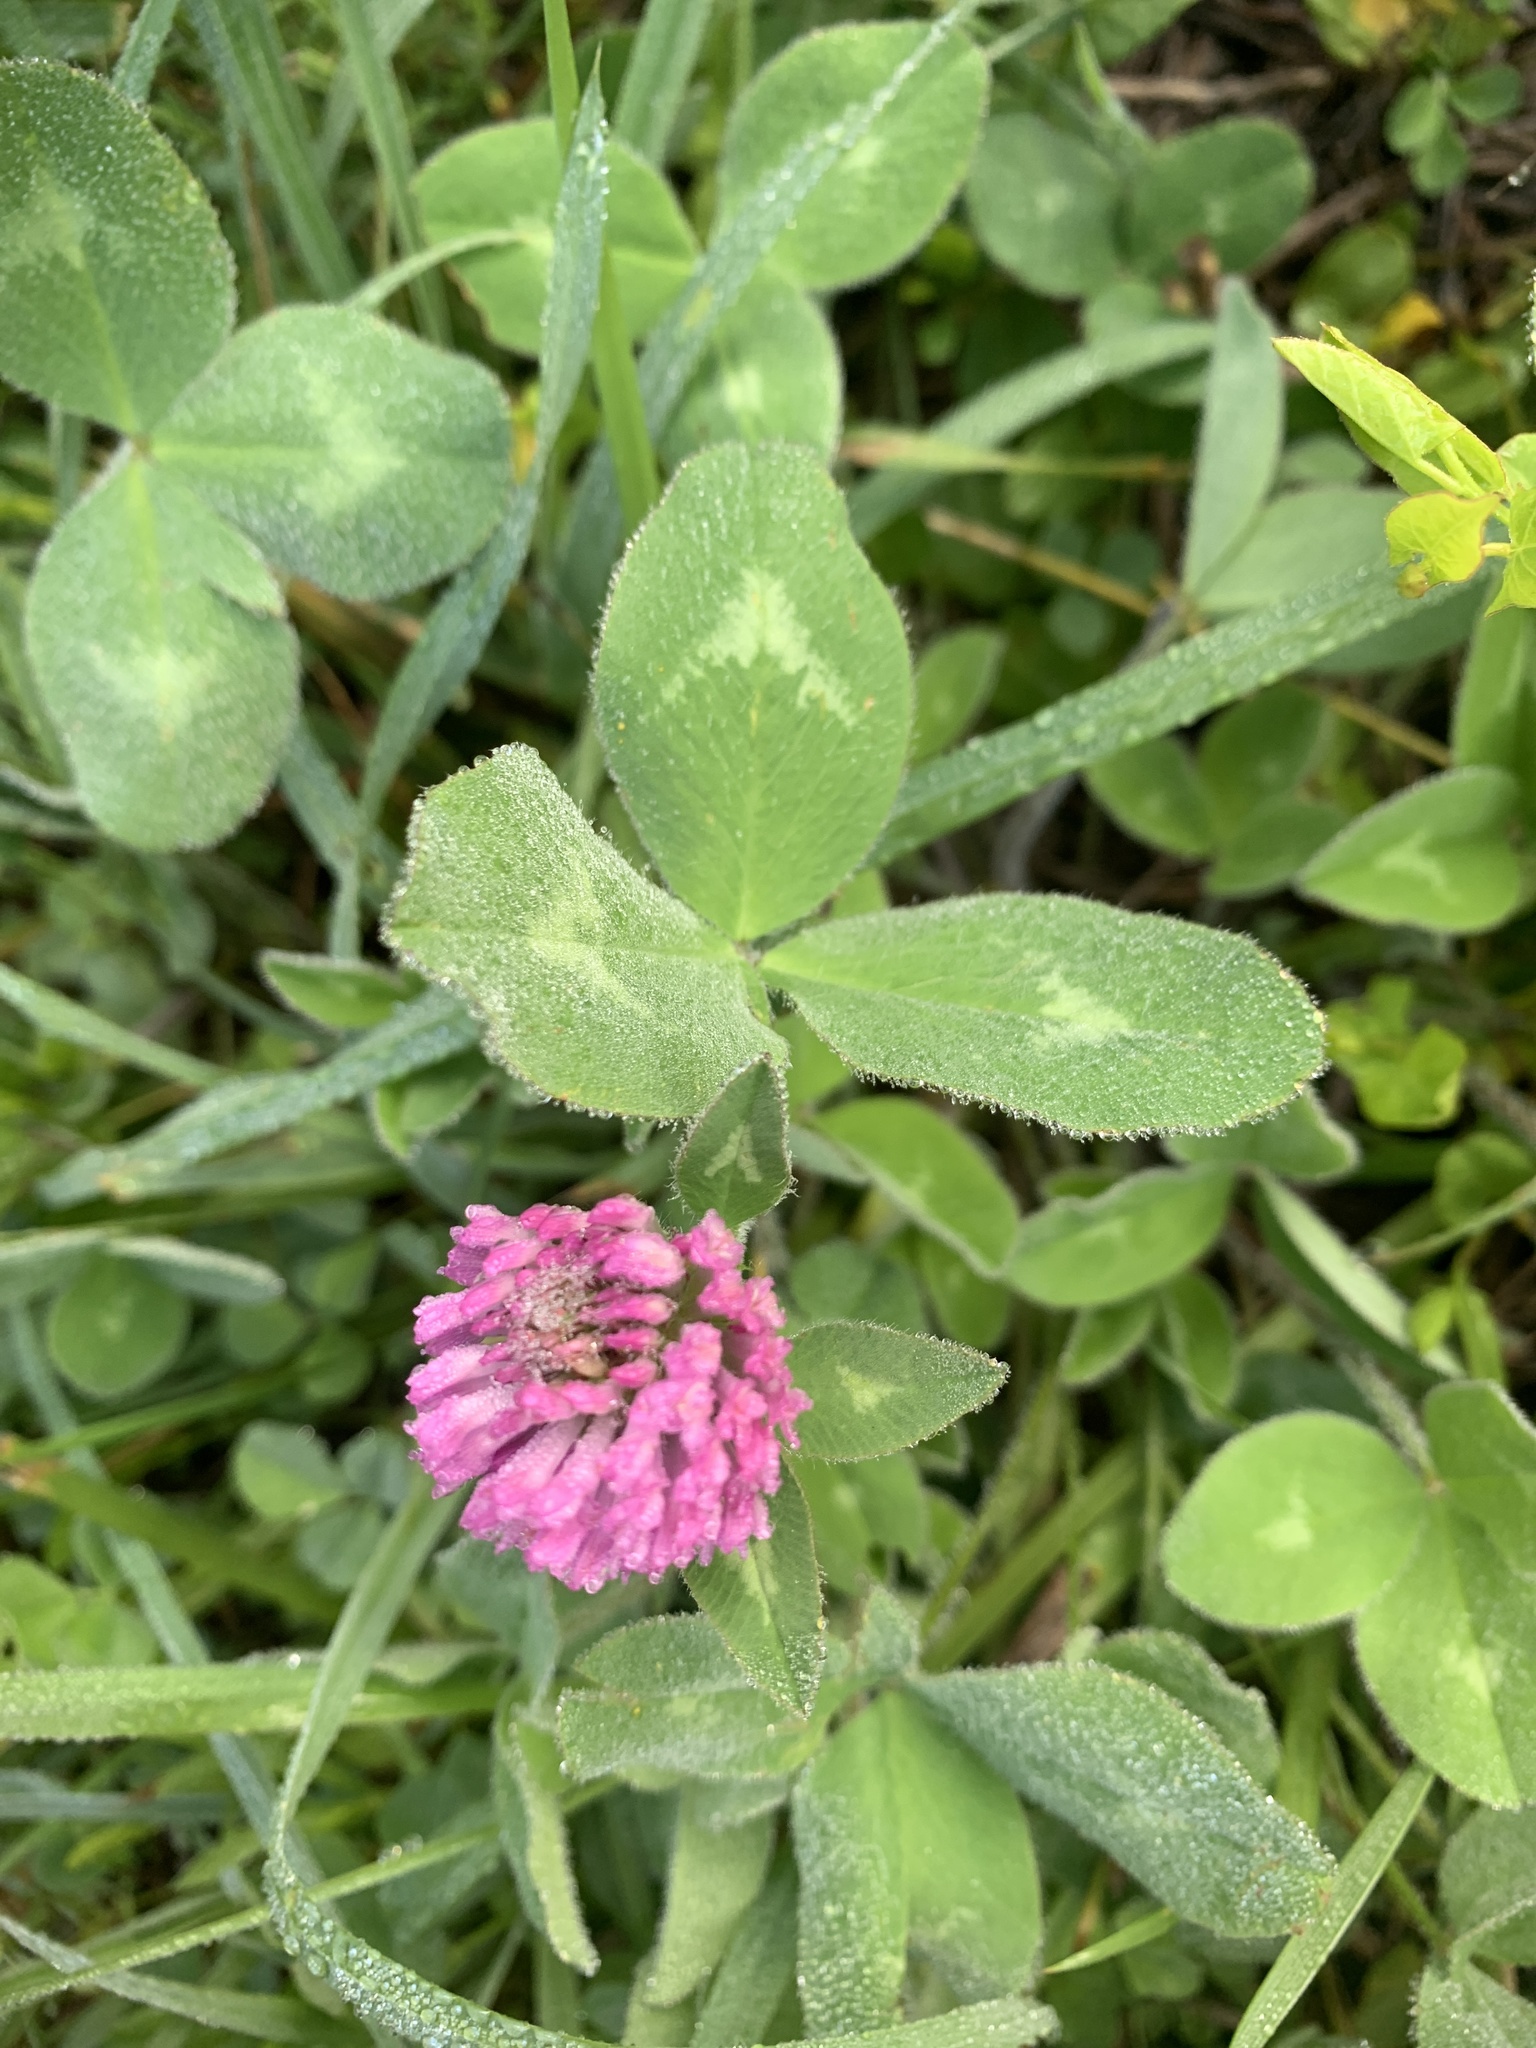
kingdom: Plantae
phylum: Tracheophyta
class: Magnoliopsida
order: Fabales
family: Fabaceae
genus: Trifolium
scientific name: Trifolium pratense
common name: Red clover
